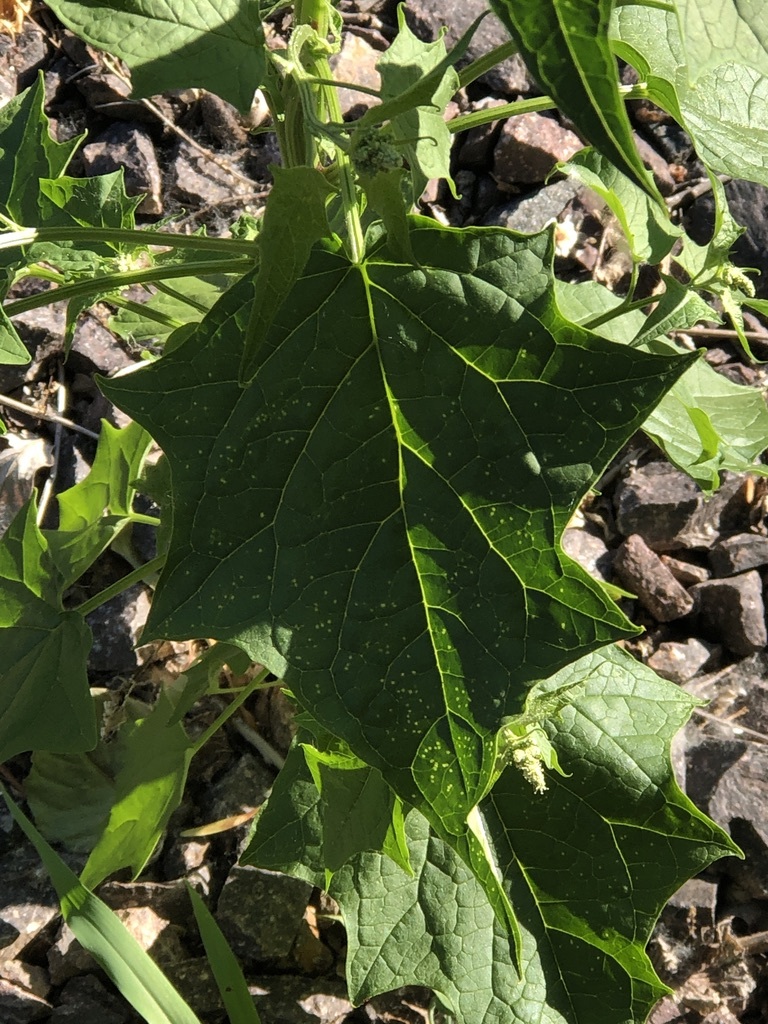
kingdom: Plantae
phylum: Tracheophyta
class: Magnoliopsida
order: Caryophyllales
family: Amaranthaceae
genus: Chenopodiastrum
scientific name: Chenopodiastrum simplex
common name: Large-seed goosefoot
